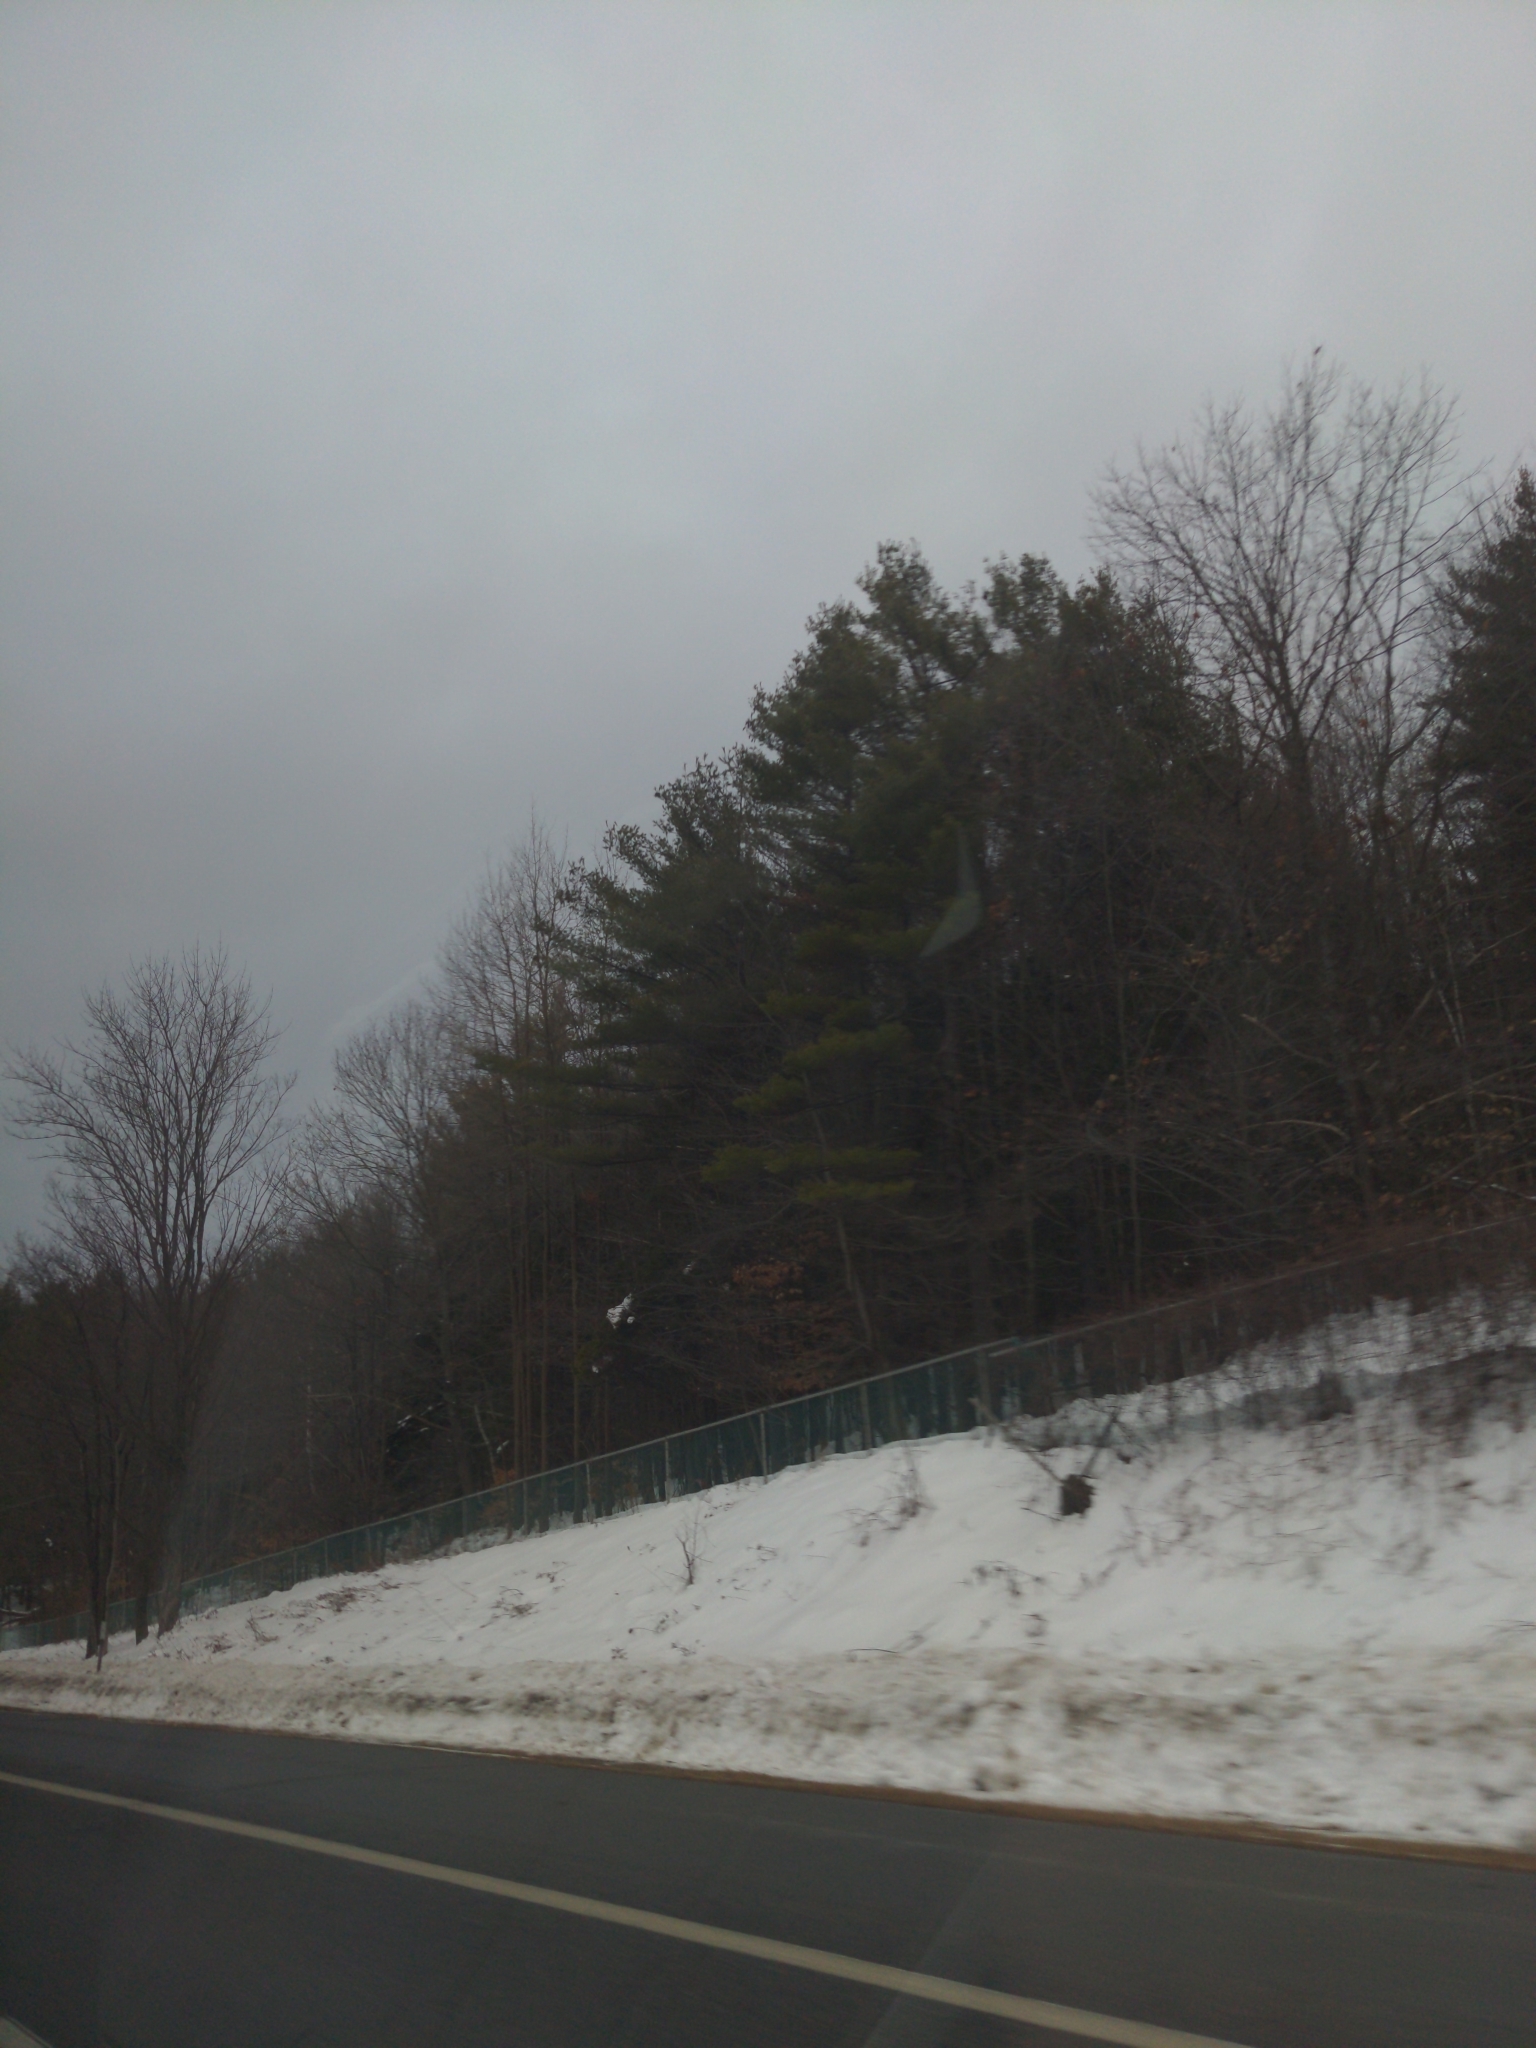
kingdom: Plantae
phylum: Tracheophyta
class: Pinopsida
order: Pinales
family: Pinaceae
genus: Pinus
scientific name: Pinus strobus
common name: Weymouth pine
